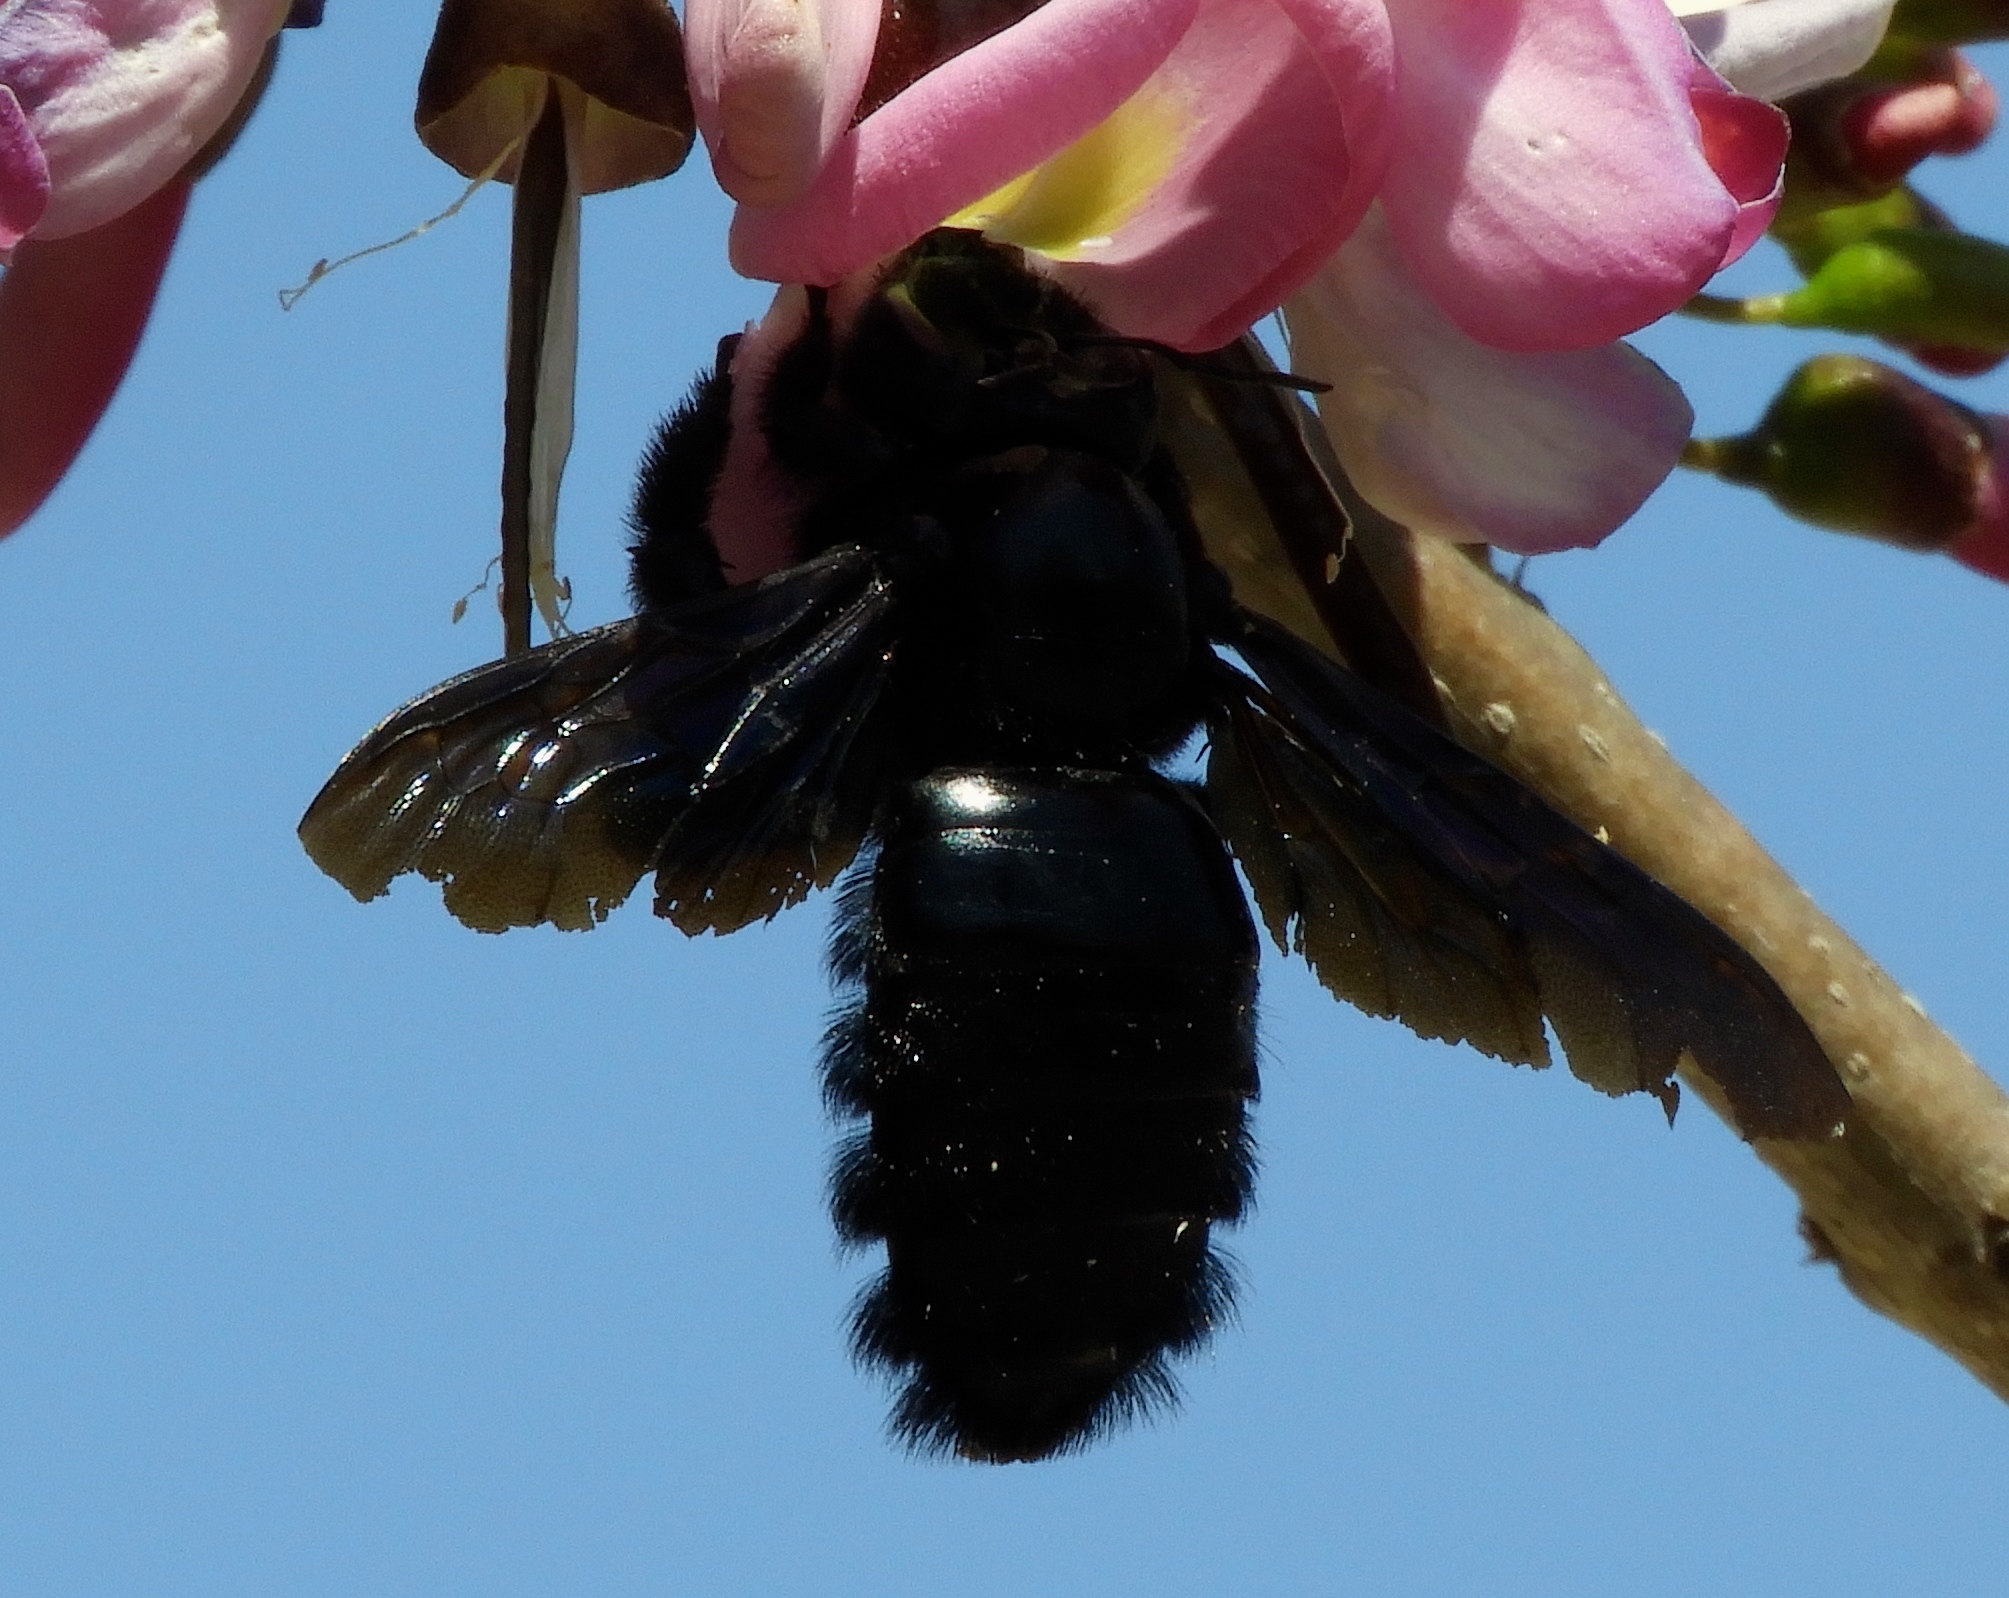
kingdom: Animalia
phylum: Arthropoda
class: Insecta
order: Hymenoptera
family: Apidae
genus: Xylocopa
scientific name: Xylocopa fimbriata
